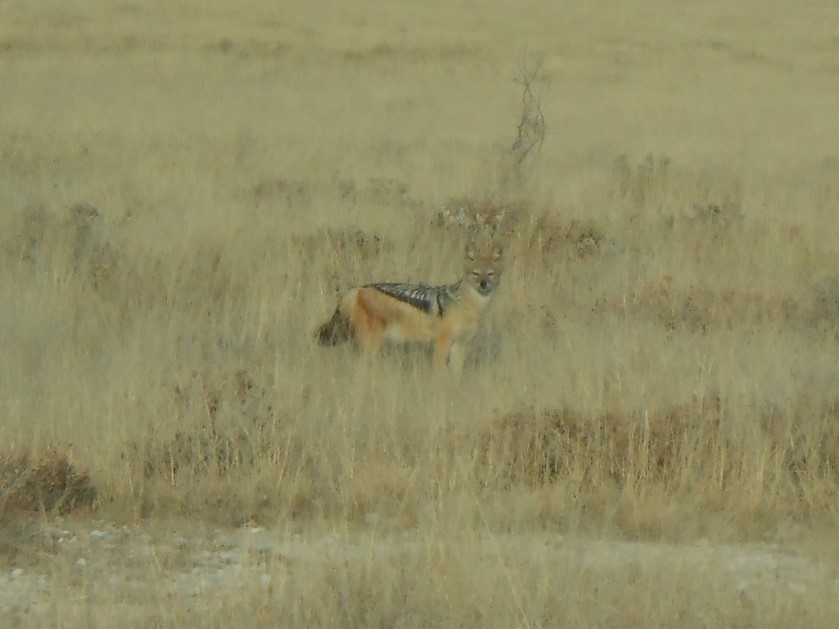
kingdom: Animalia
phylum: Chordata
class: Mammalia
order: Carnivora
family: Canidae
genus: Lupulella
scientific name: Lupulella
